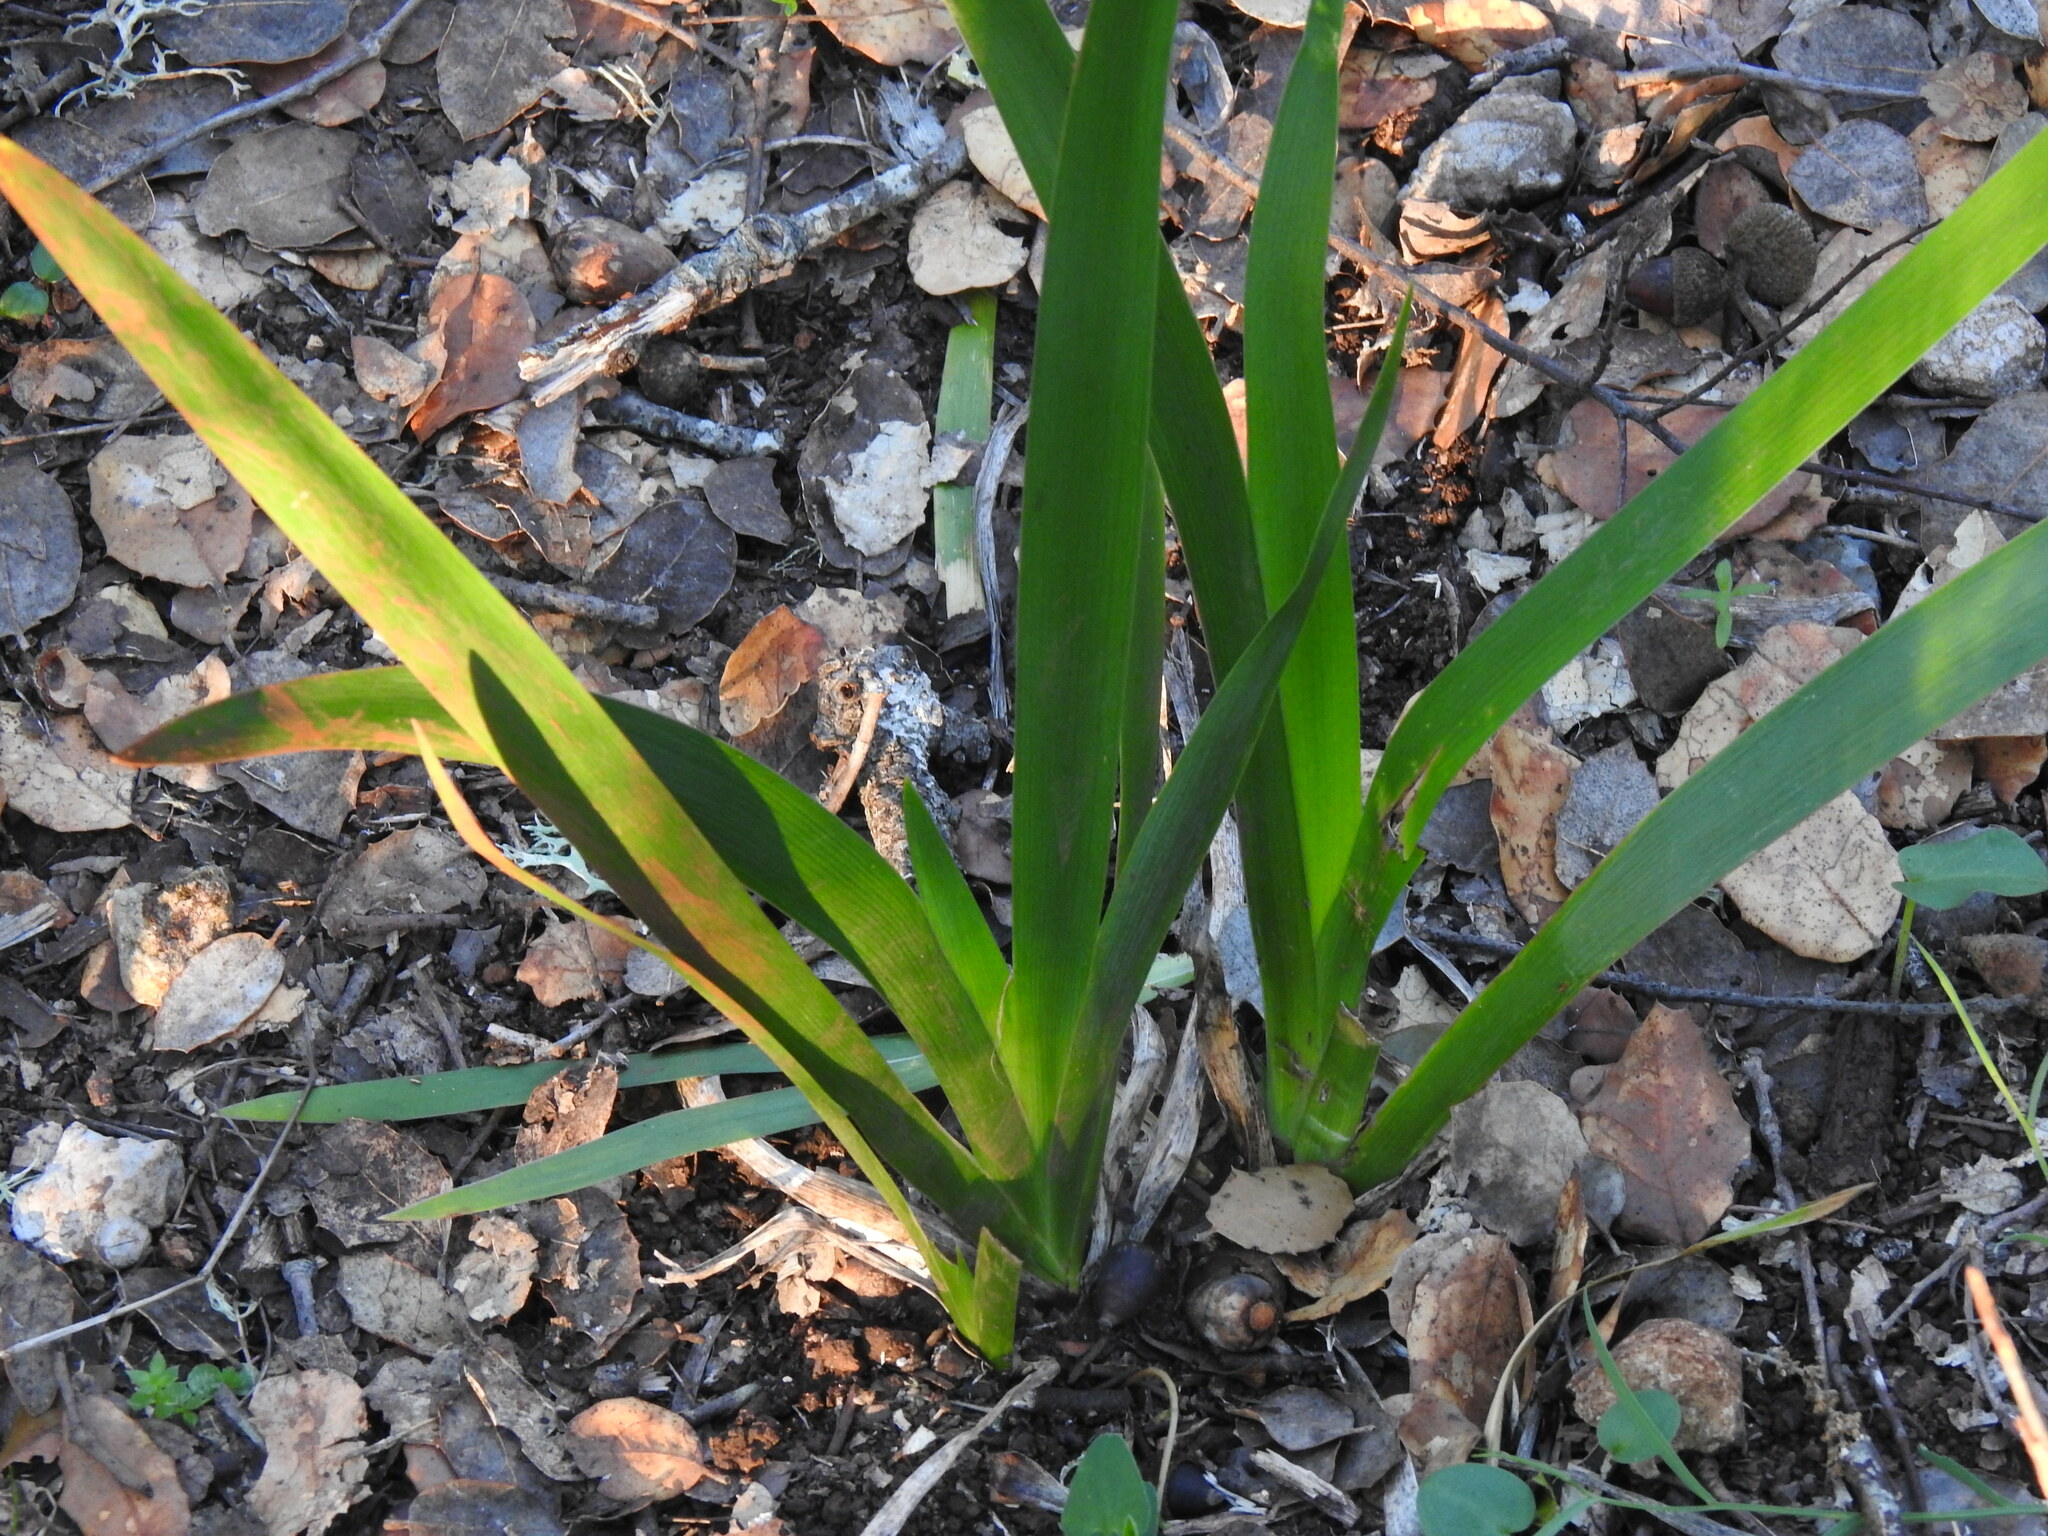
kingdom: Plantae
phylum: Tracheophyta
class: Liliopsida
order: Asparagales
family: Iridaceae
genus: Iris
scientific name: Iris foetidissima
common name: Stinking iris
